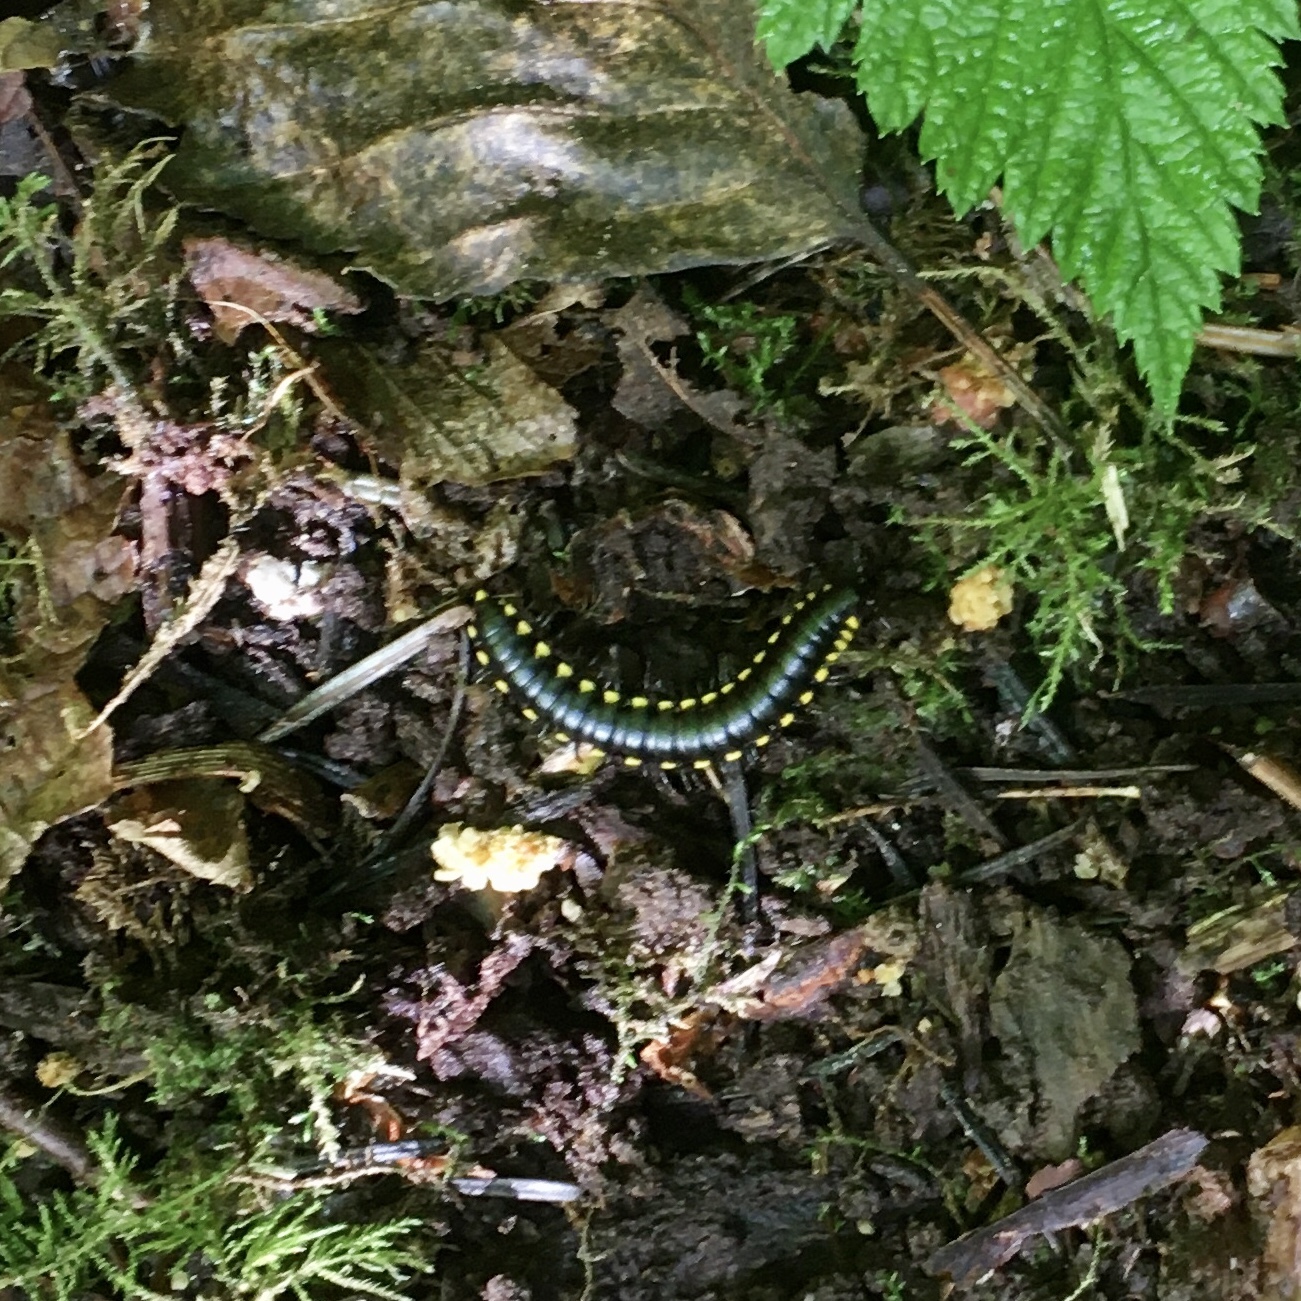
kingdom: Animalia
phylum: Arthropoda
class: Diplopoda
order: Polydesmida
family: Xystodesmidae
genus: Harpaphe
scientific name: Harpaphe haydeniana
